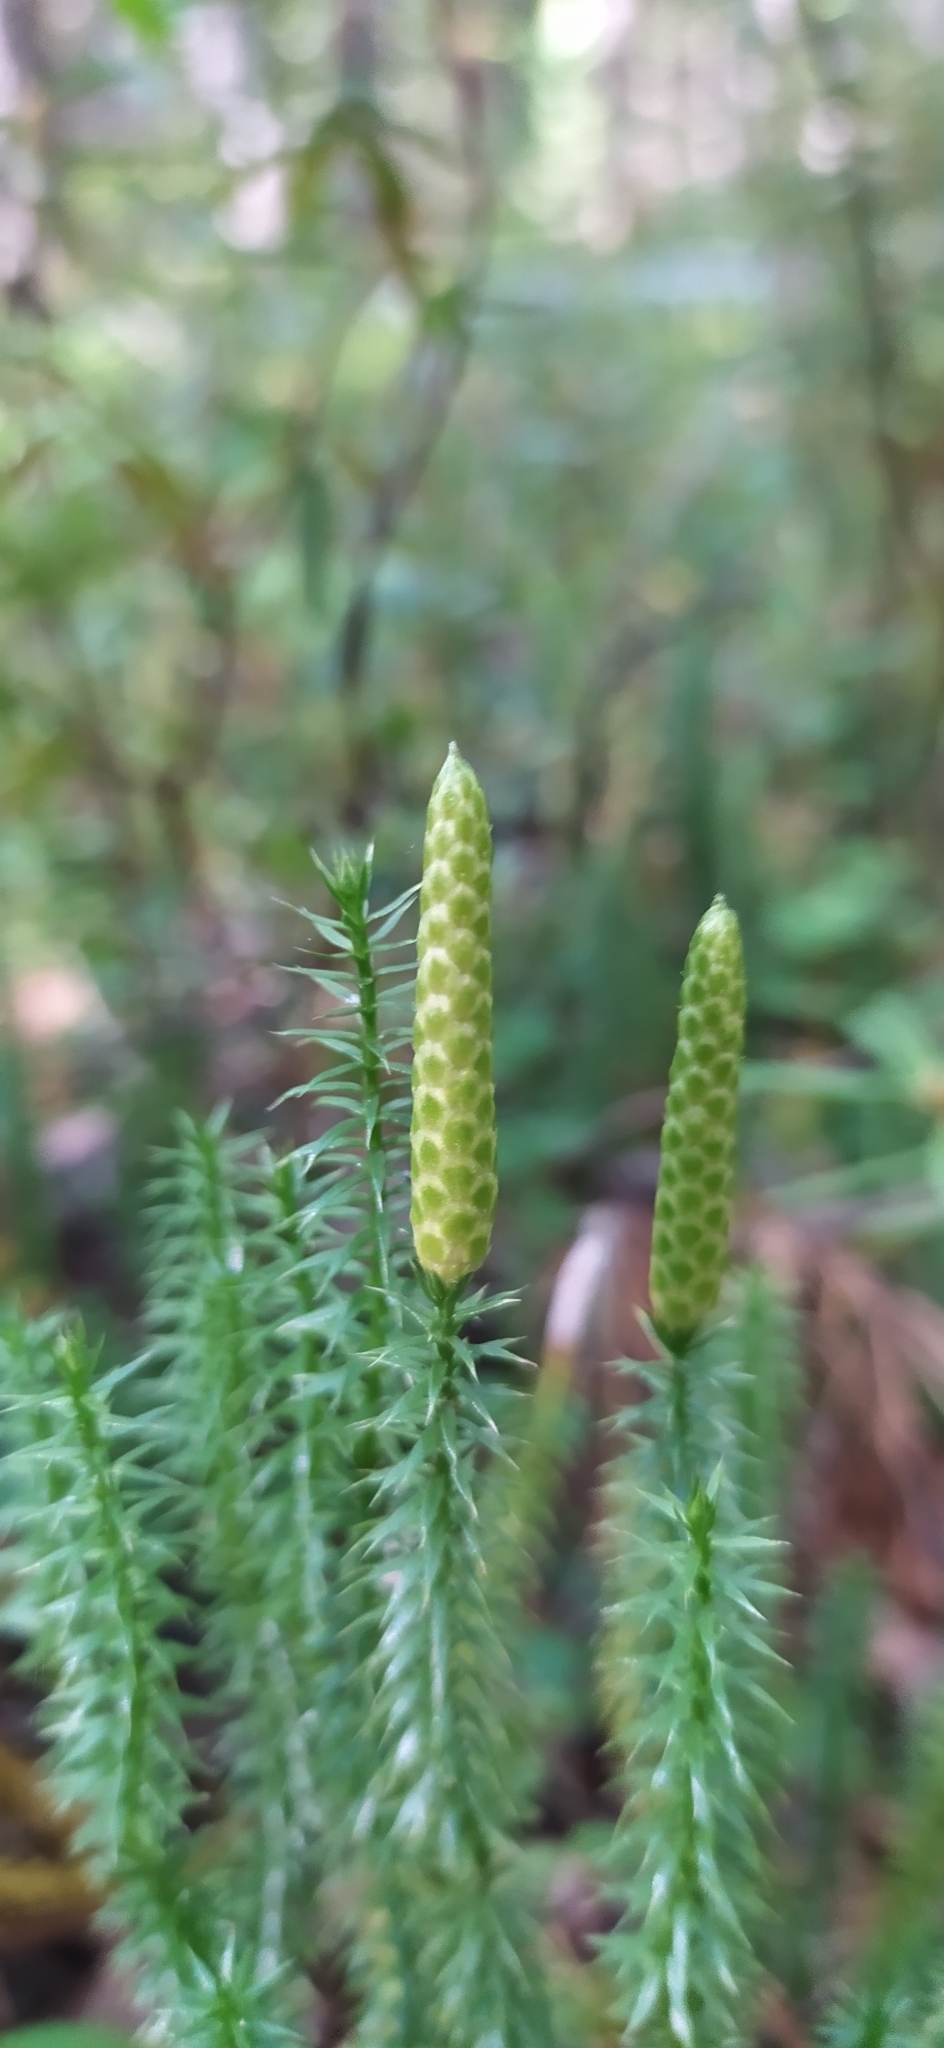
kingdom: Plantae
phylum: Tracheophyta
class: Lycopodiopsida
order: Lycopodiales
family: Lycopodiaceae
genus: Spinulum
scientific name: Spinulum annotinum
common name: Interrupted club-moss
